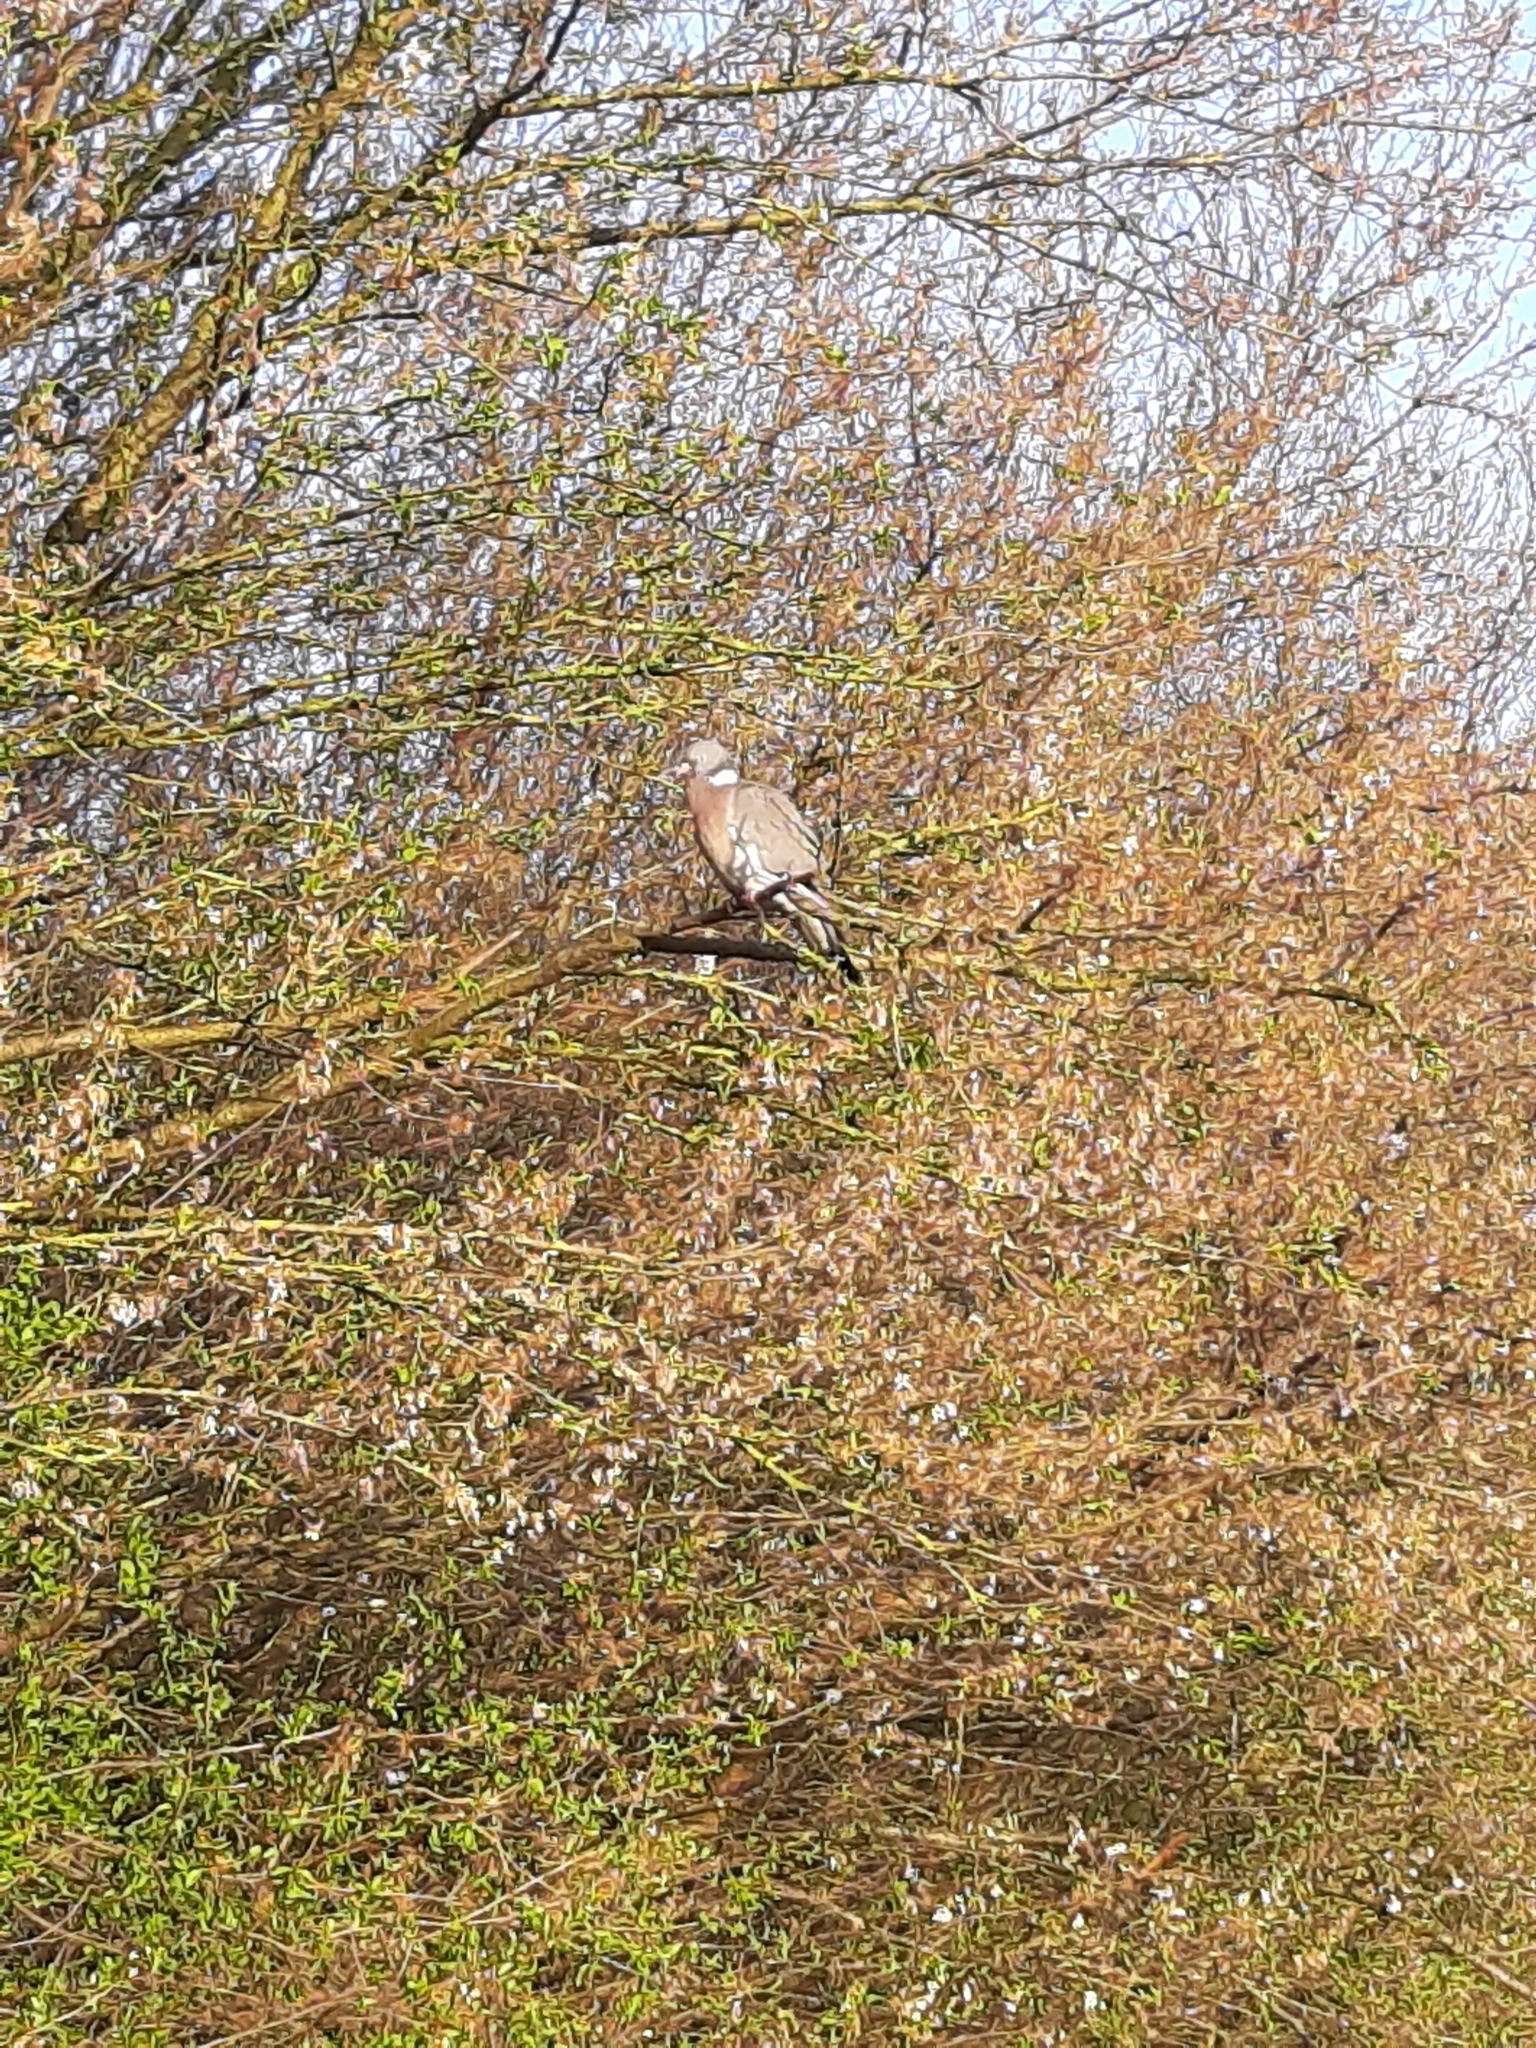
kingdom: Animalia
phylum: Chordata
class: Aves
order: Columbiformes
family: Columbidae
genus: Columba
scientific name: Columba palumbus
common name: Common wood pigeon
